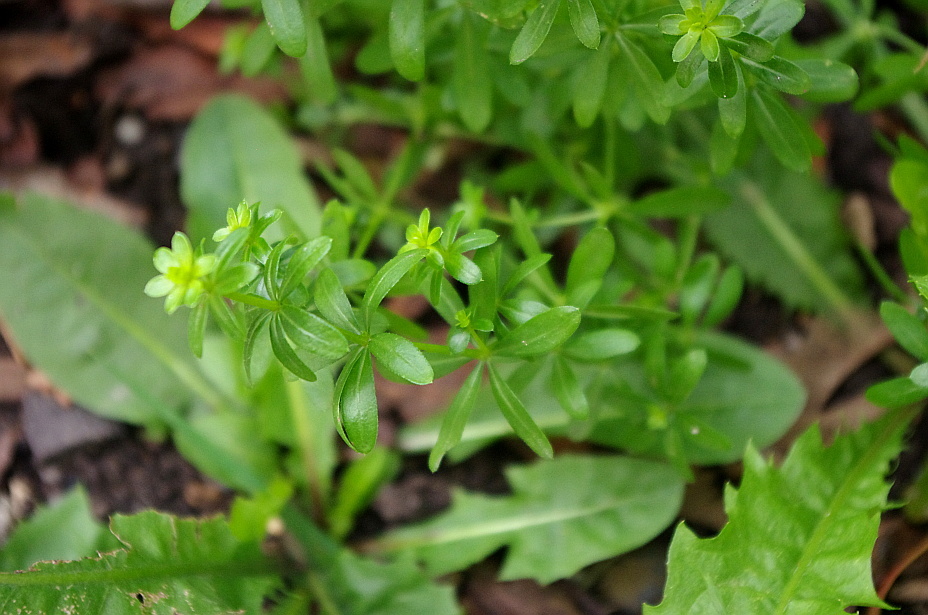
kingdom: Plantae
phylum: Tracheophyta
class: Magnoliopsida
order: Gentianales
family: Rubiaceae
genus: Galium
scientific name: Galium mollugo
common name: Hedge bedstraw
